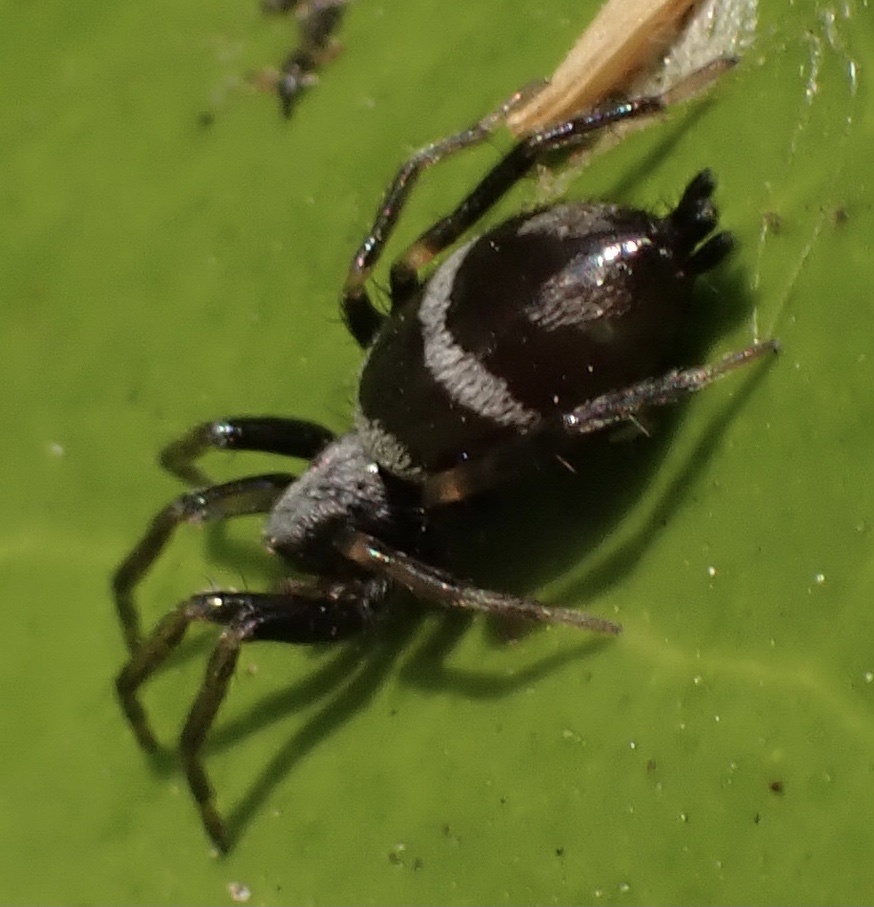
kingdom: Animalia
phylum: Arthropoda
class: Arachnida
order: Araneae
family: Gnaphosidae
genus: Aphantaulax
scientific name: Aphantaulax cincta
